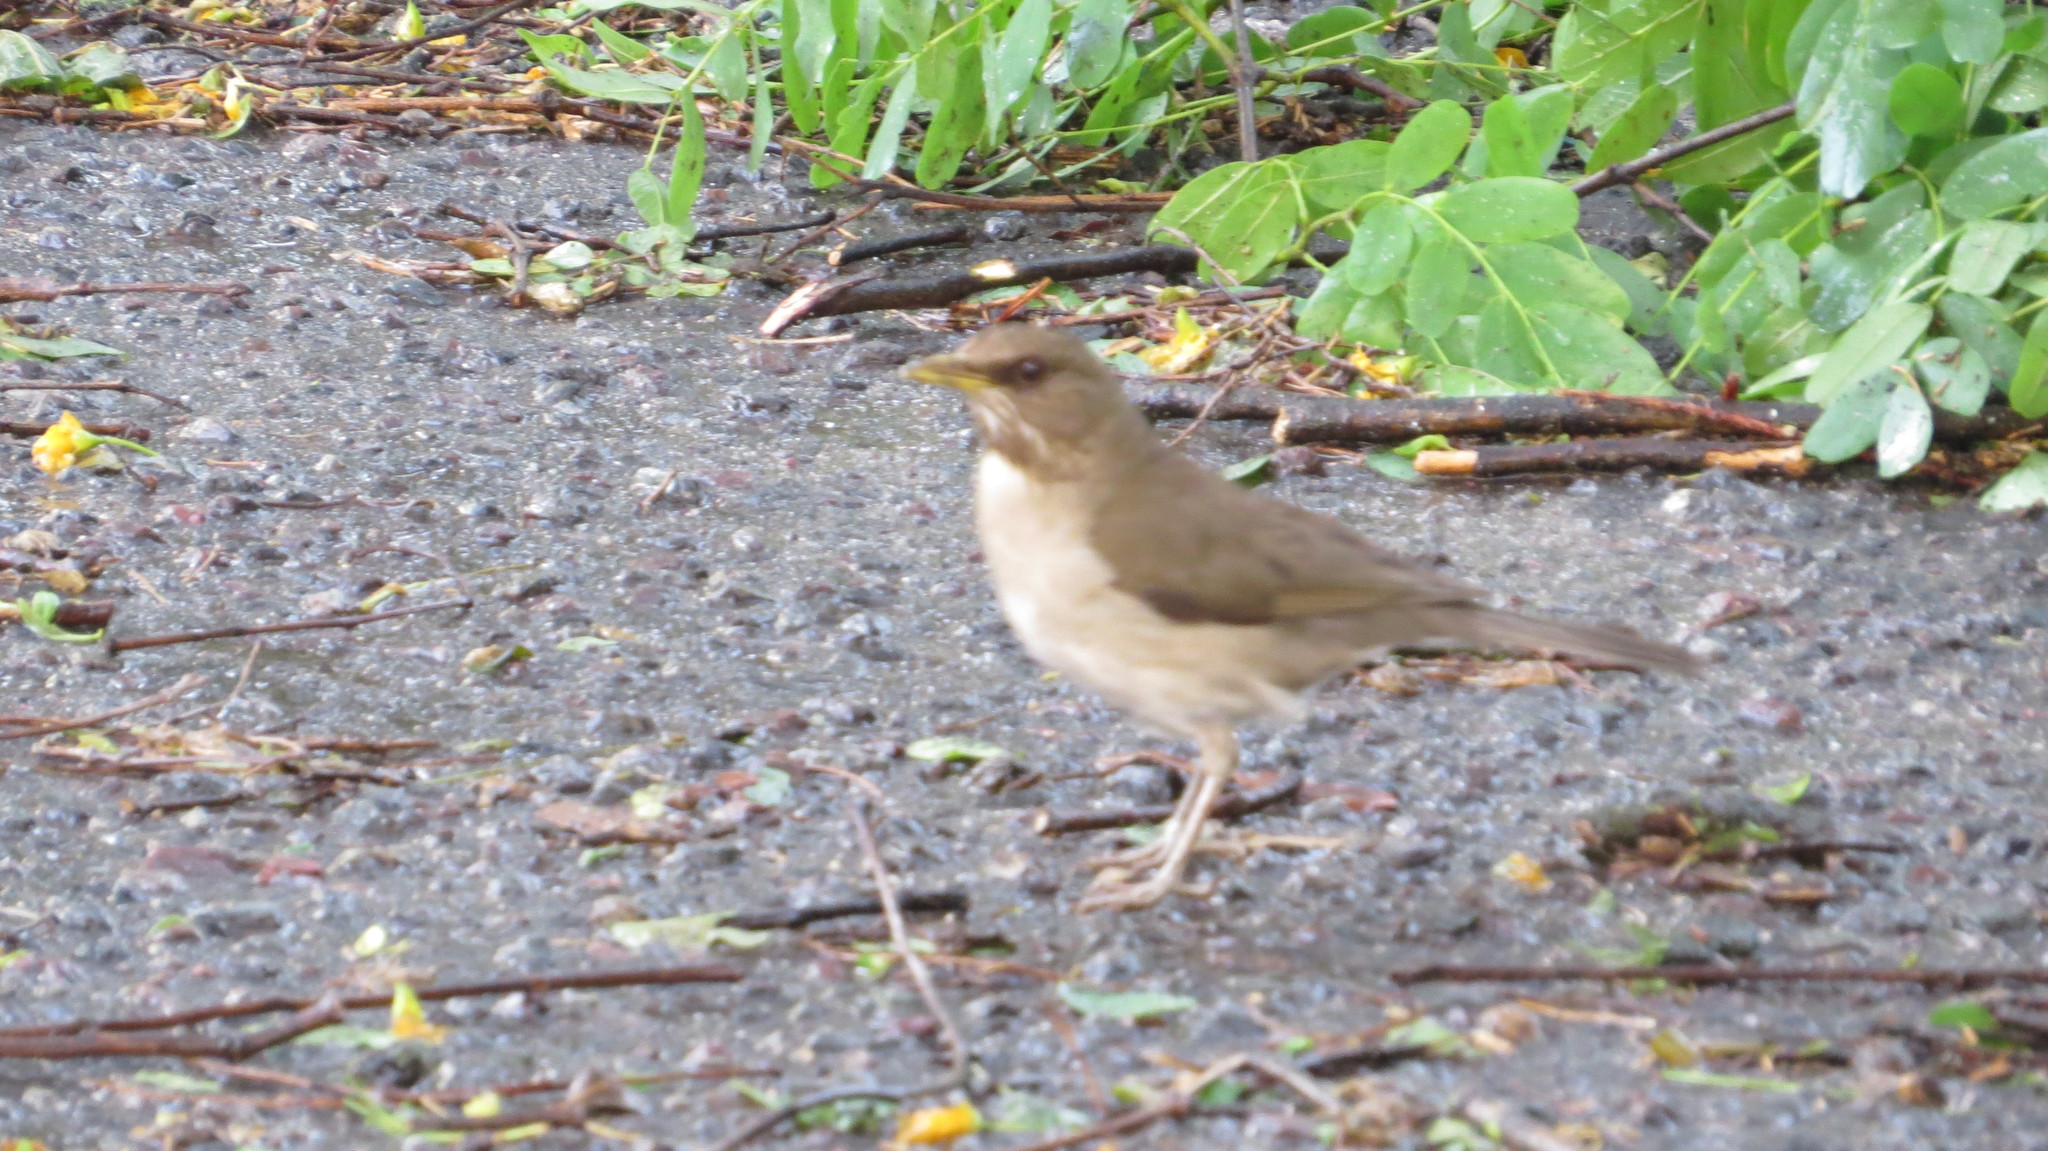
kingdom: Animalia
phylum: Chordata
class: Aves
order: Passeriformes
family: Turdidae
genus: Turdus
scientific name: Turdus amaurochalinus
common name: Creamy-bellied thrush
